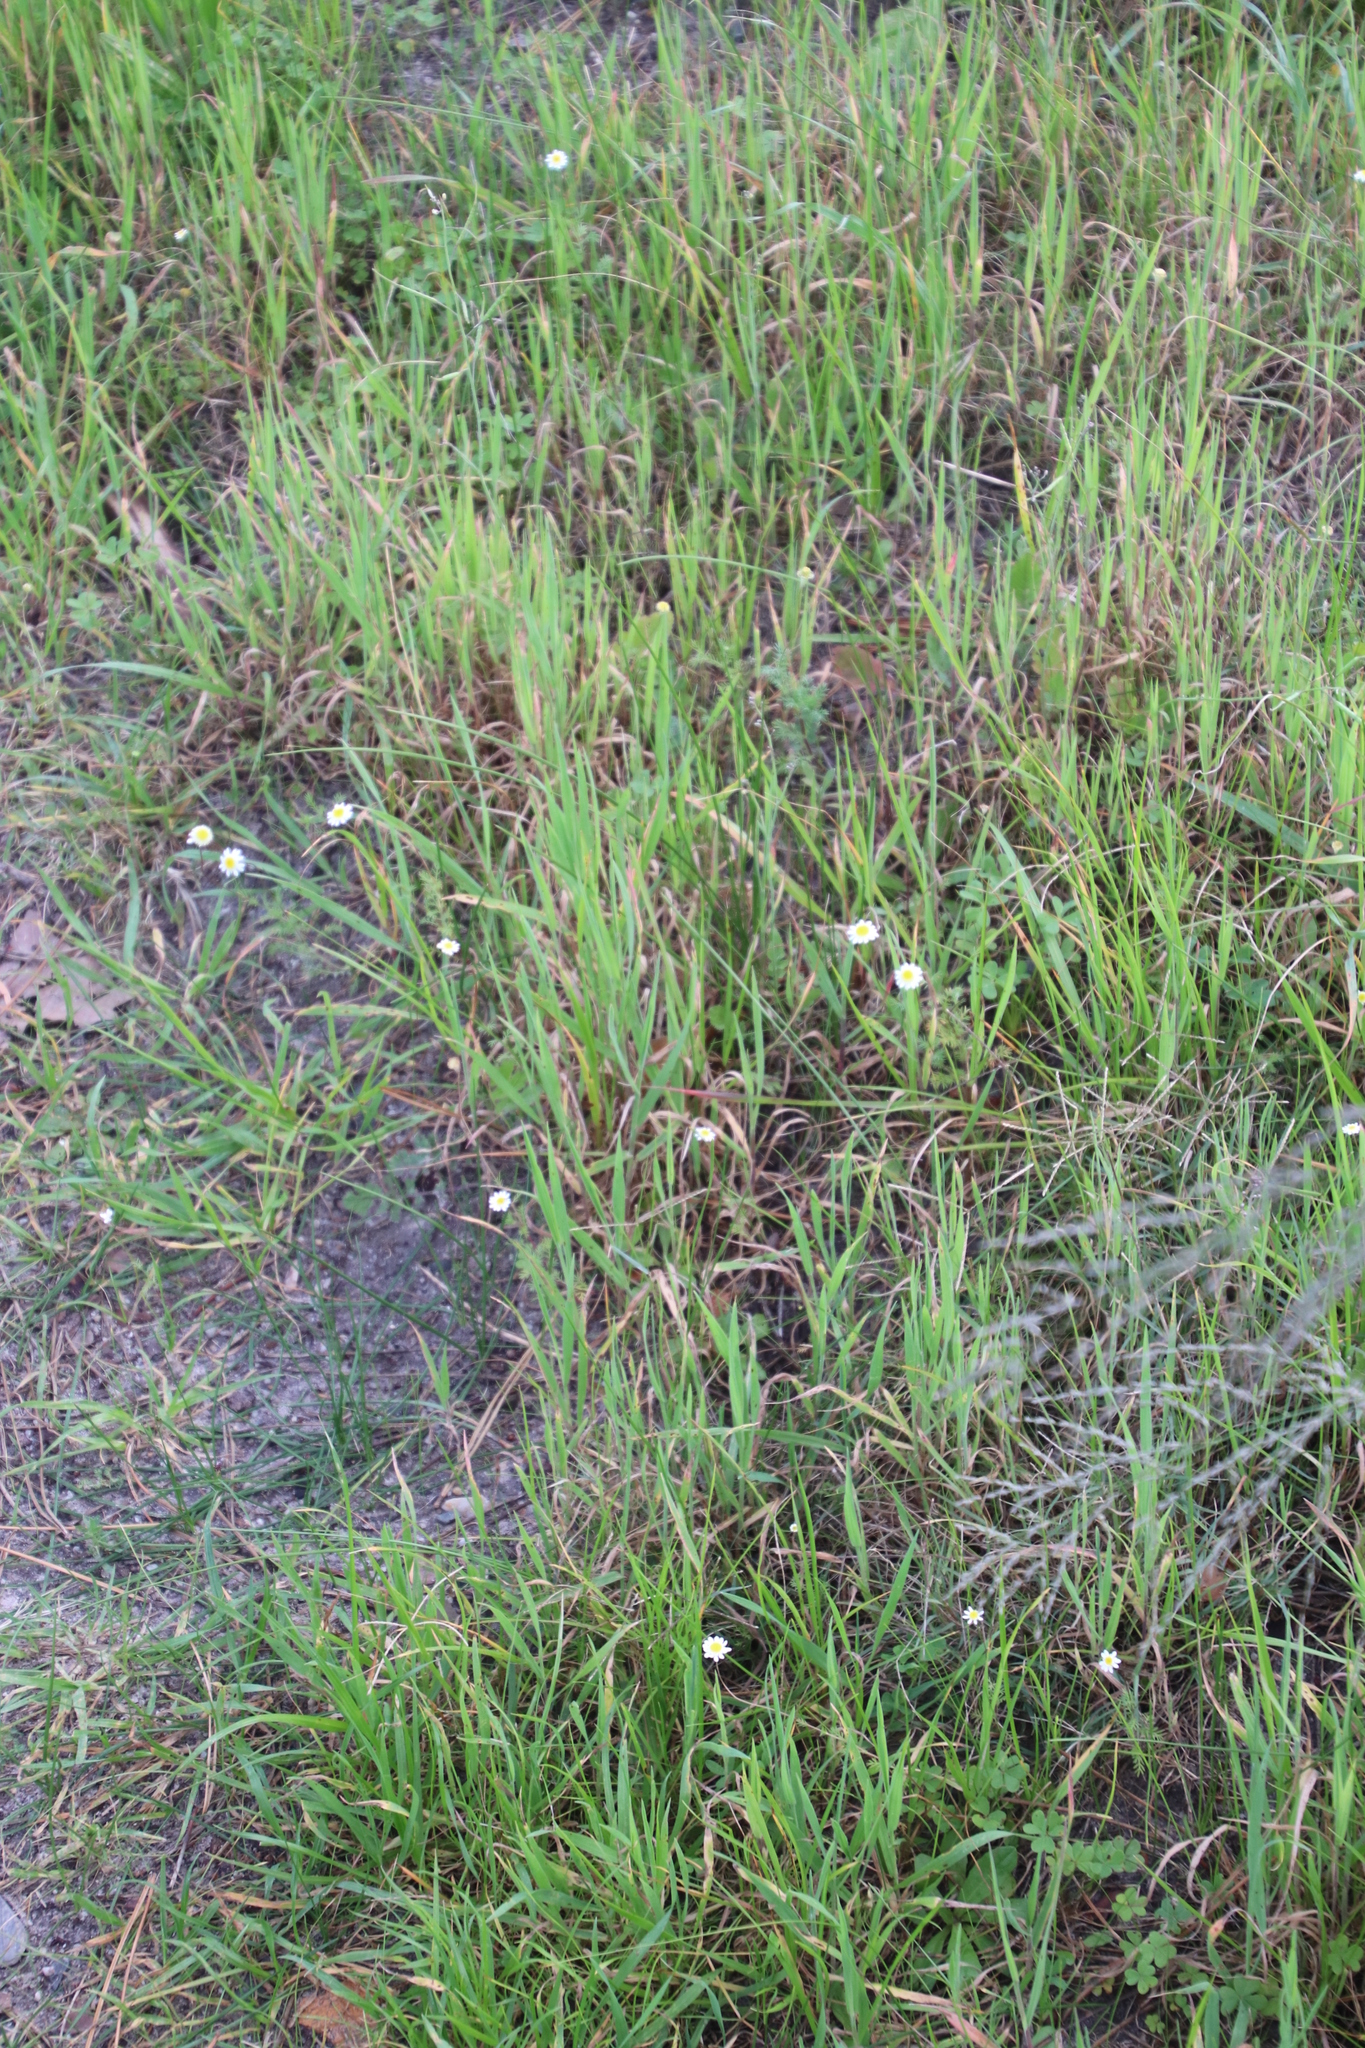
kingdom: Plantae
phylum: Tracheophyta
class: Magnoliopsida
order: Asterales
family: Asteraceae
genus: Cotula
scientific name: Cotula turbinata
